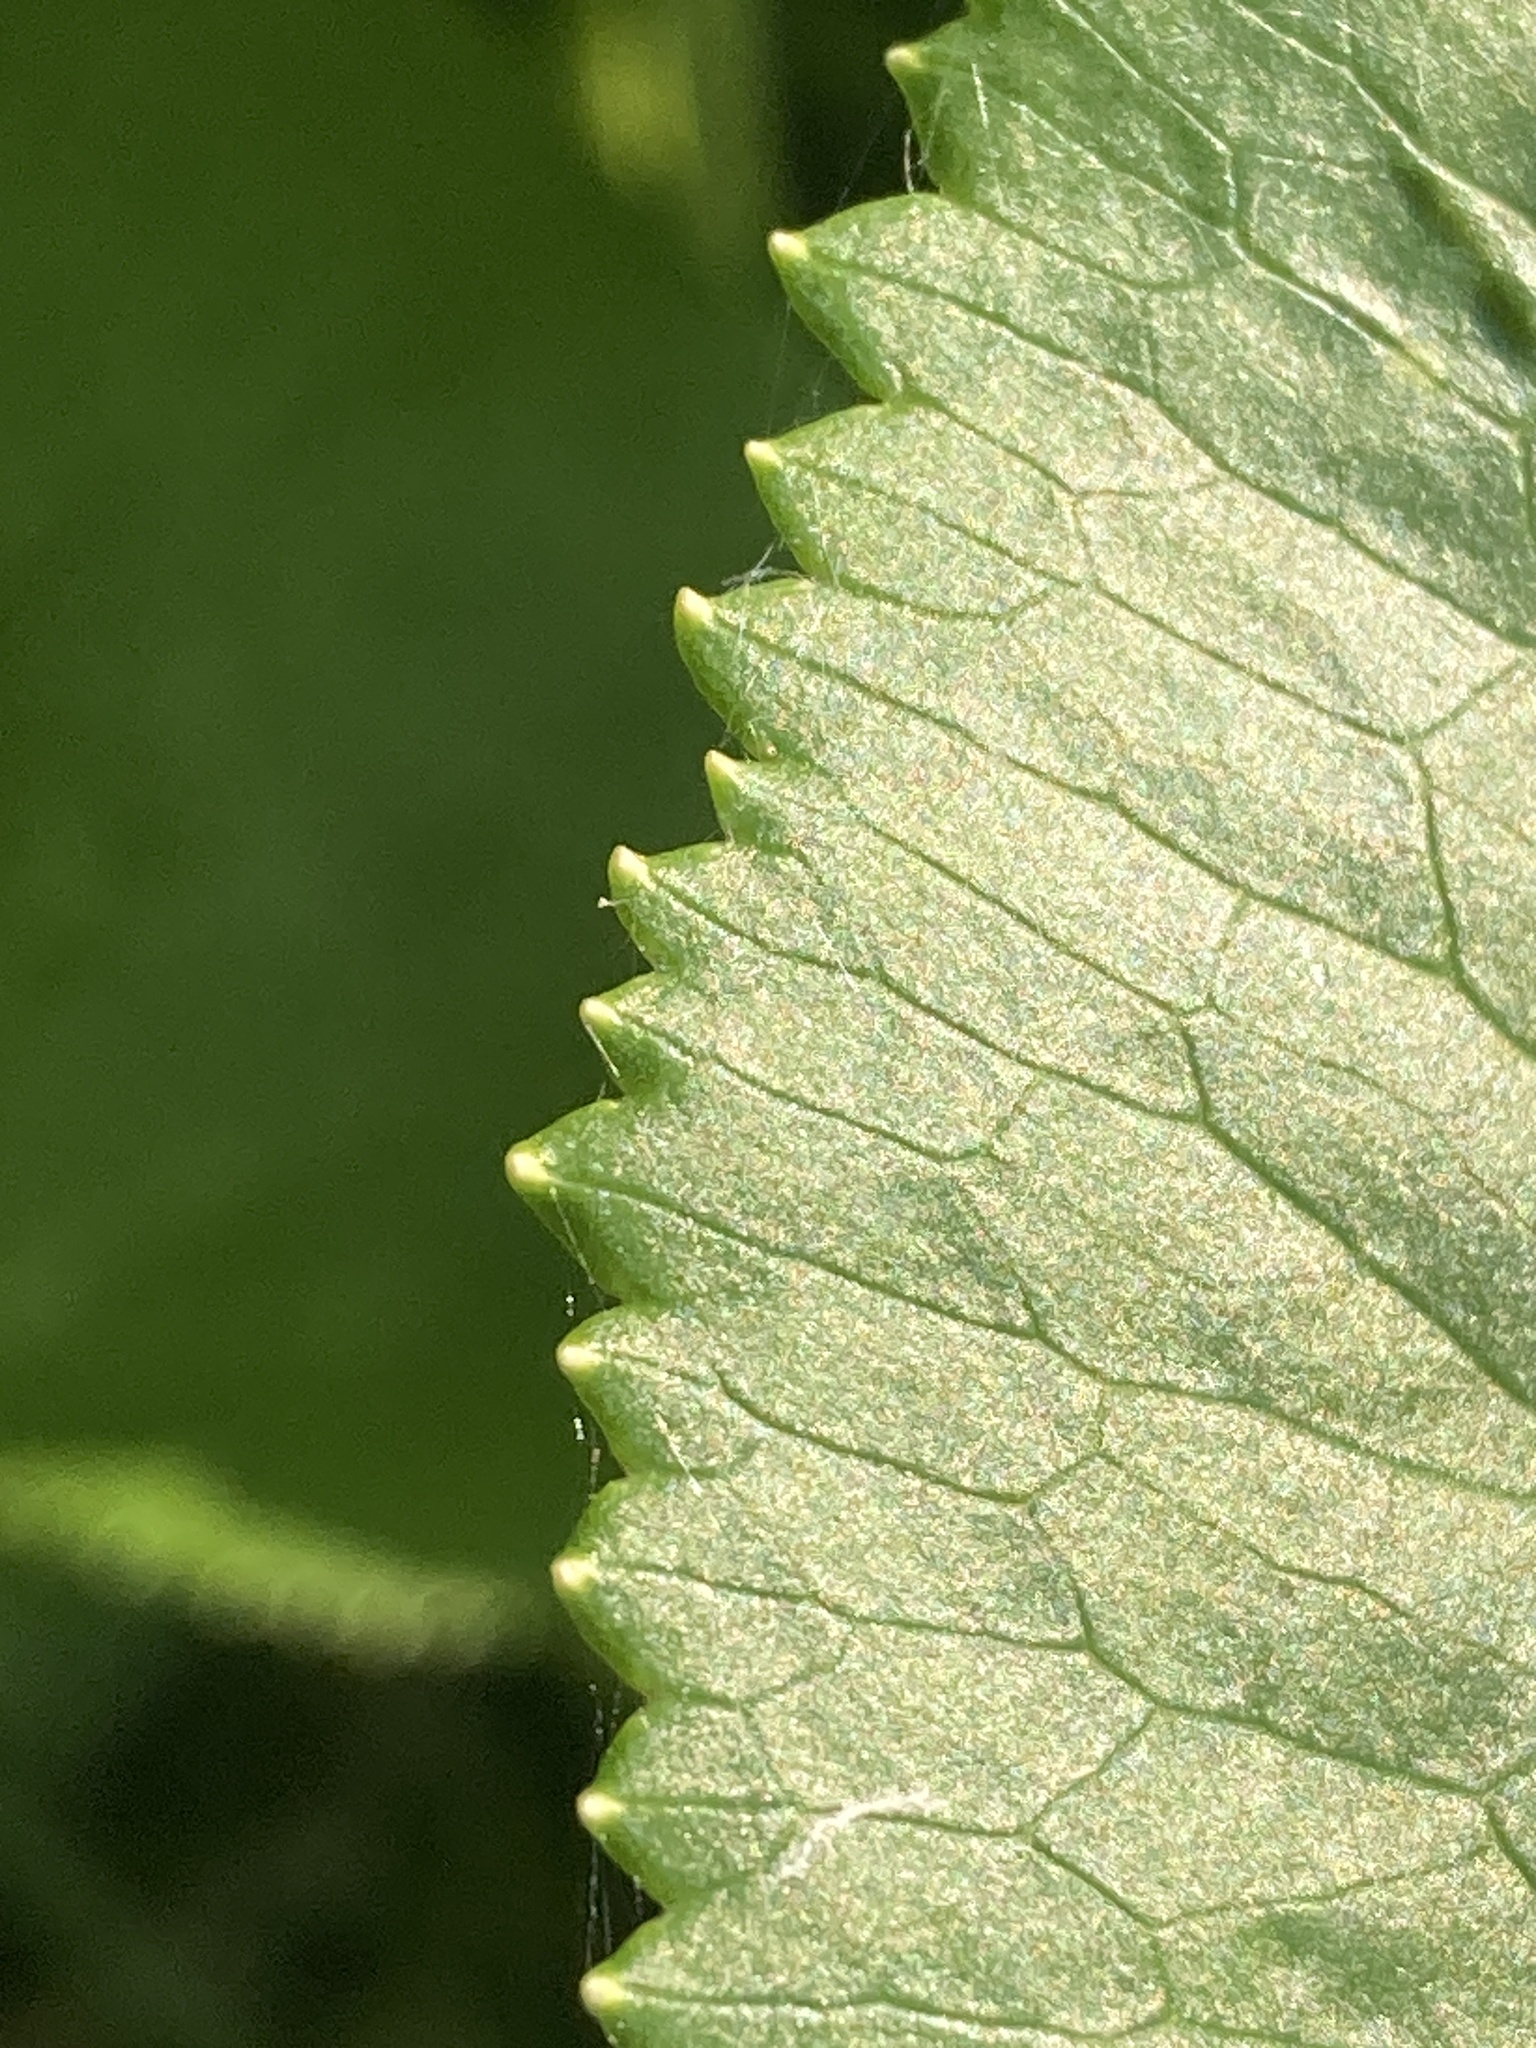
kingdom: Plantae
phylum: Tracheophyta
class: Magnoliopsida
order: Ranunculales
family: Ranunculaceae
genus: Caltha
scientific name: Caltha palustris
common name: Marsh marigold
